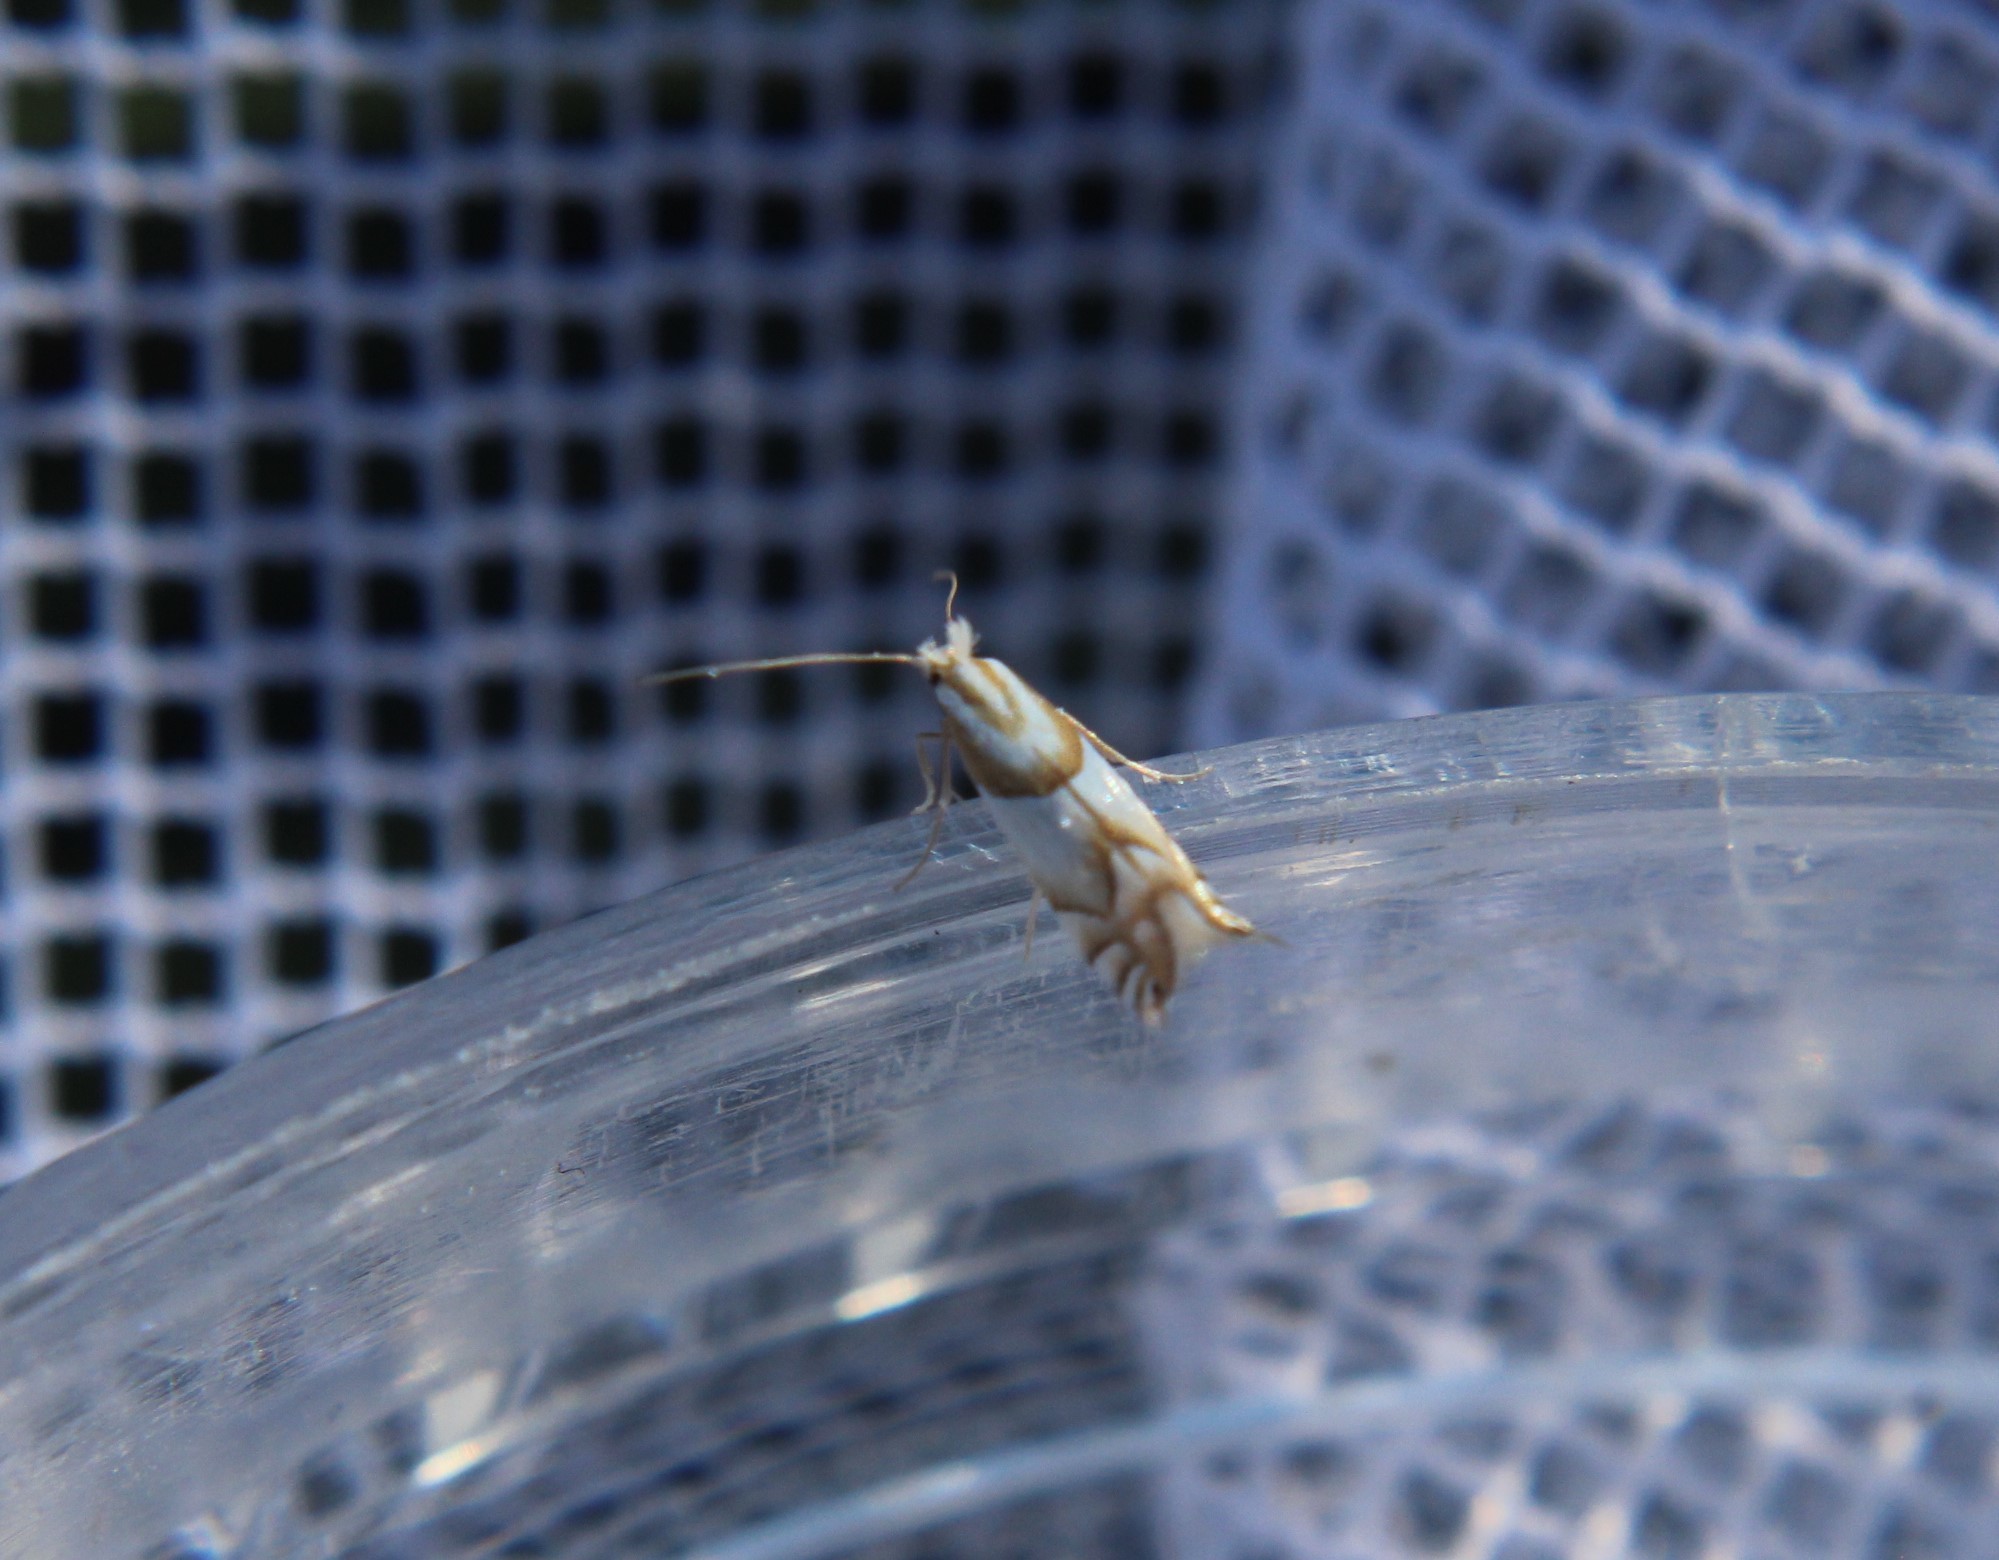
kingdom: Animalia
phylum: Arthropoda
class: Insecta
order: Lepidoptera
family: Gracillariidae
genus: Phyllonorycter
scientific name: Phyllonorycter roboris
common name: Gold-bent midget
